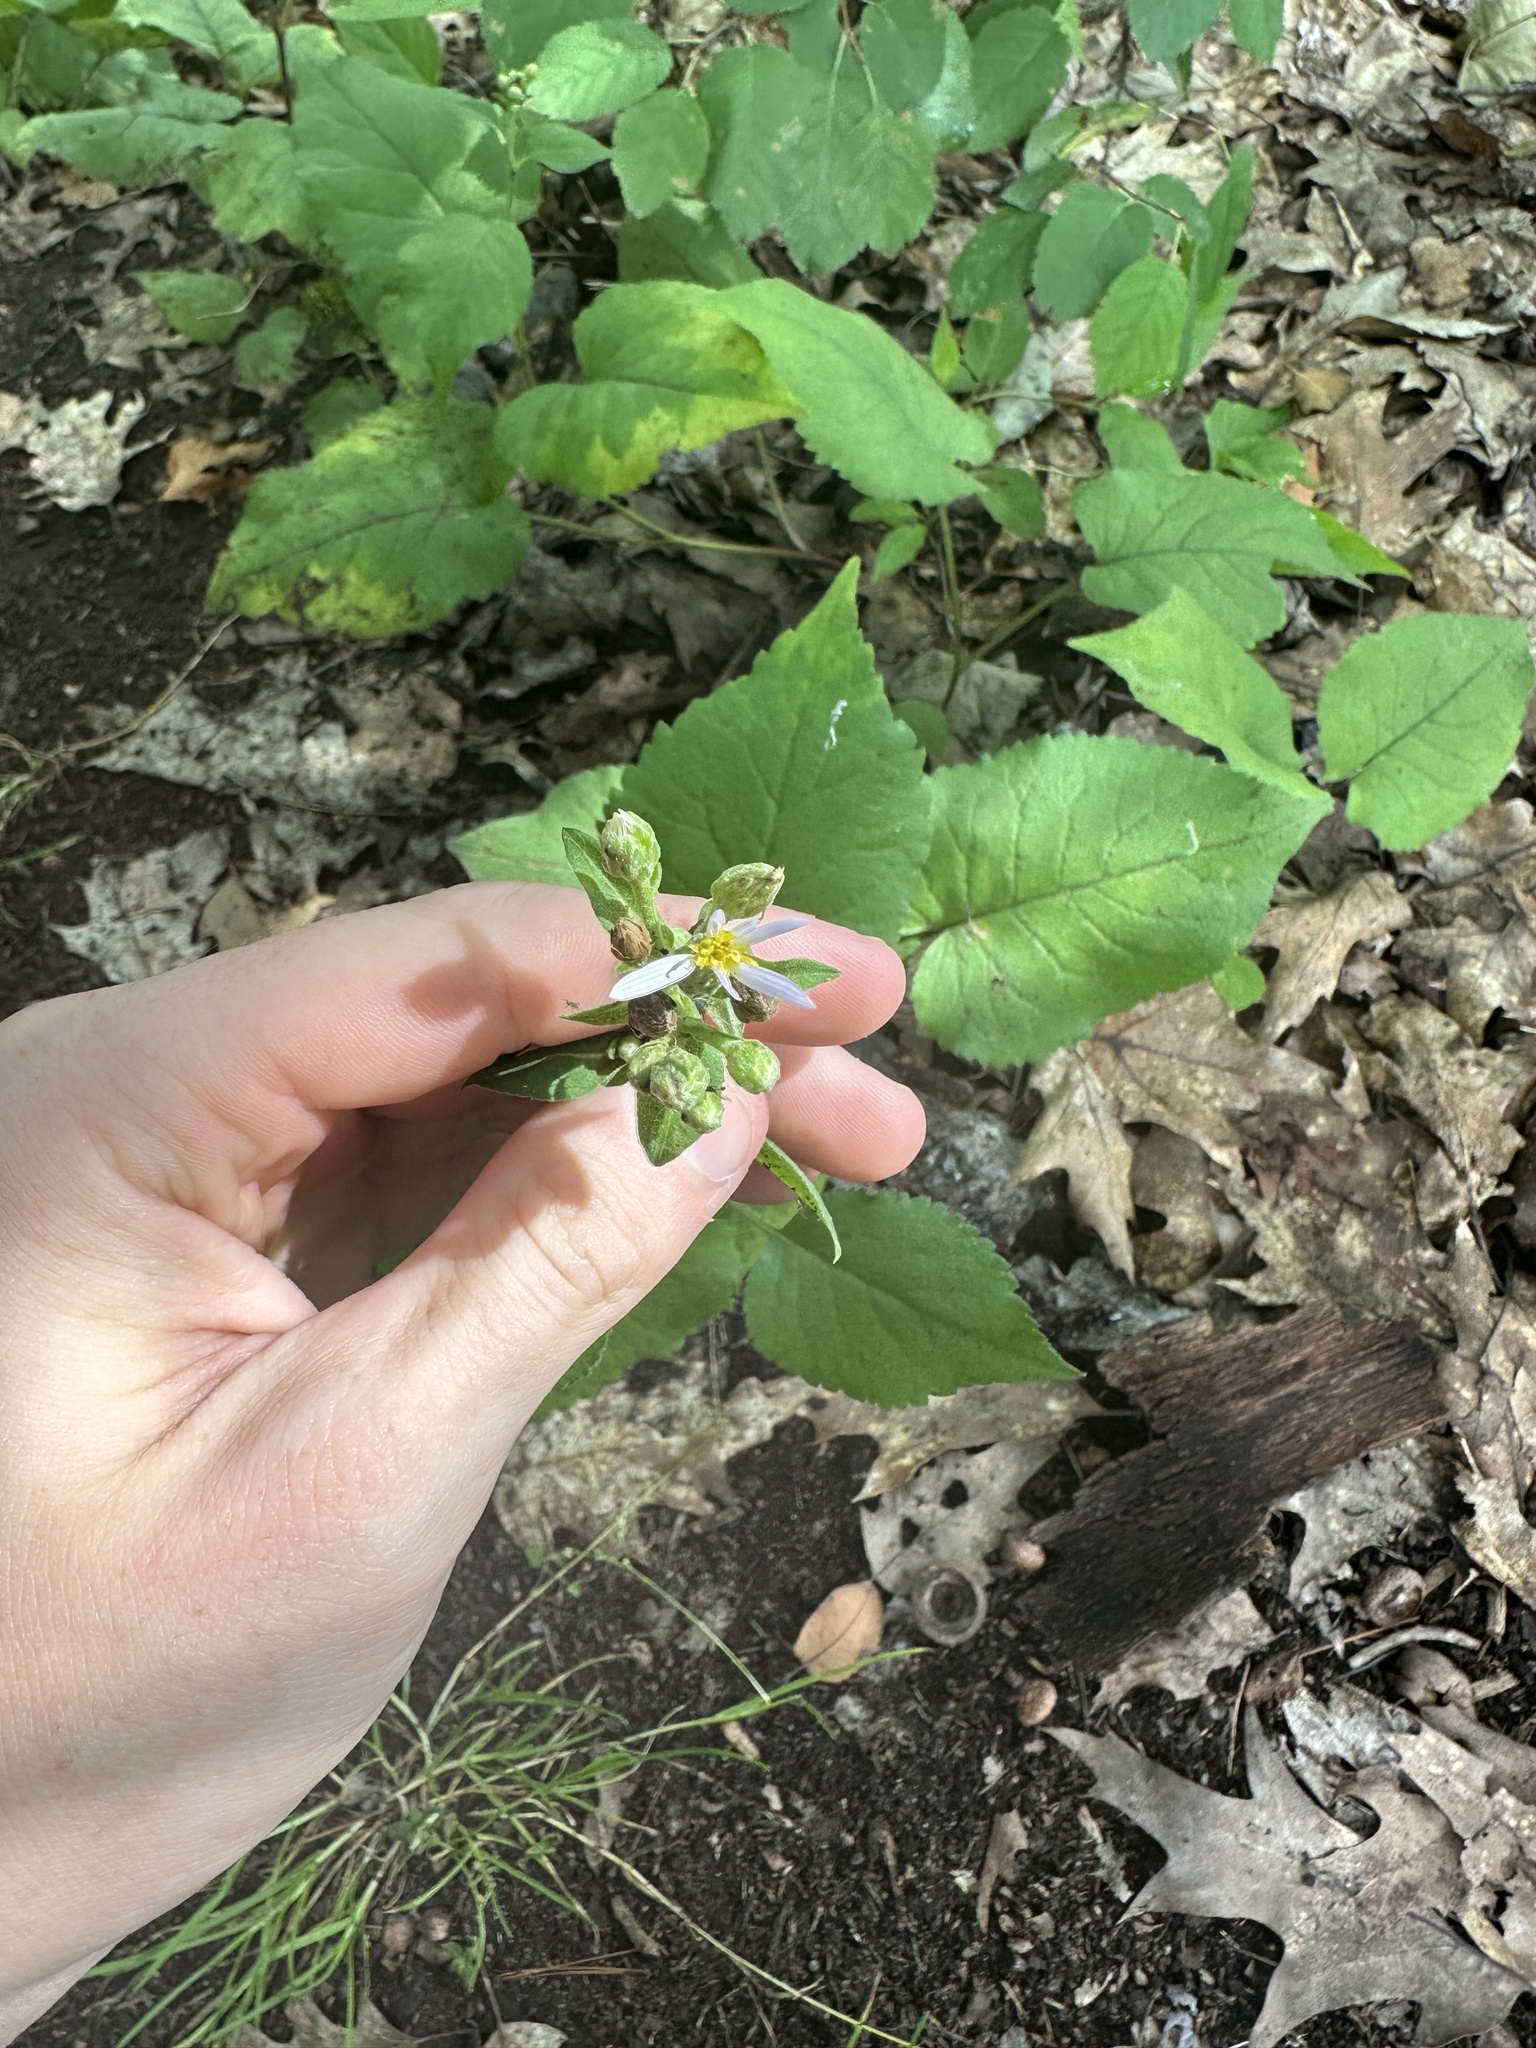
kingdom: Plantae
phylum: Tracheophyta
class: Magnoliopsida
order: Asterales
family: Asteraceae
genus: Eurybia
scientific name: Eurybia macrophylla
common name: Big-leaved aster
